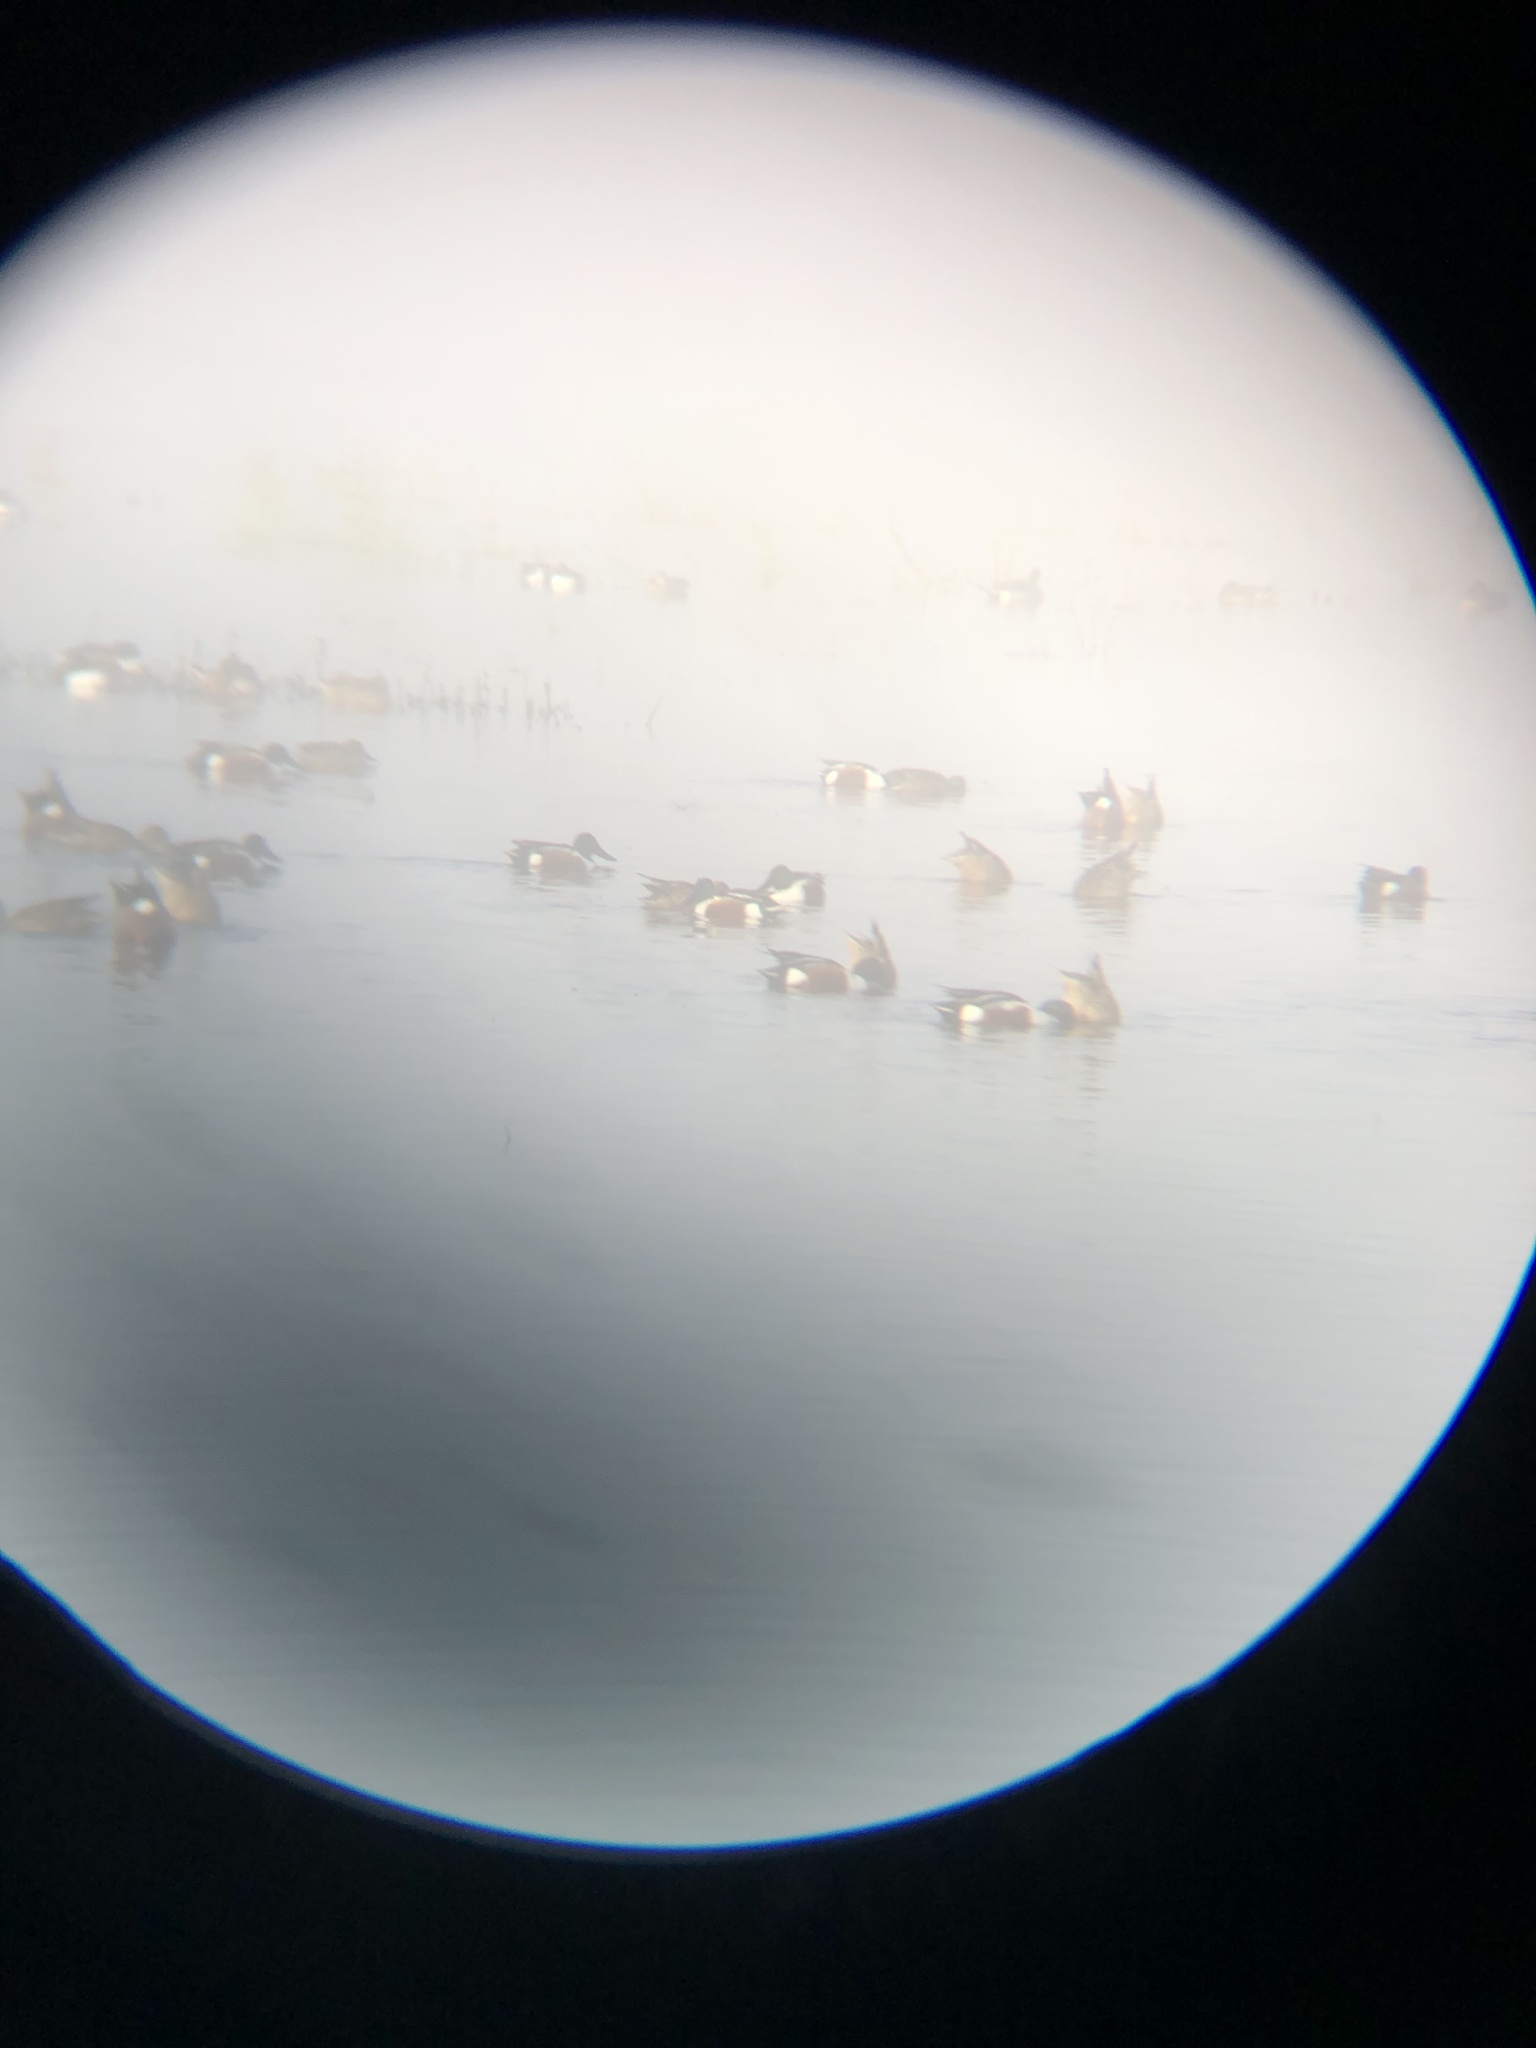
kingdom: Animalia
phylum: Chordata
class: Aves
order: Anseriformes
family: Anatidae
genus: Spatula
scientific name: Spatula clypeata
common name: Northern shoveler
